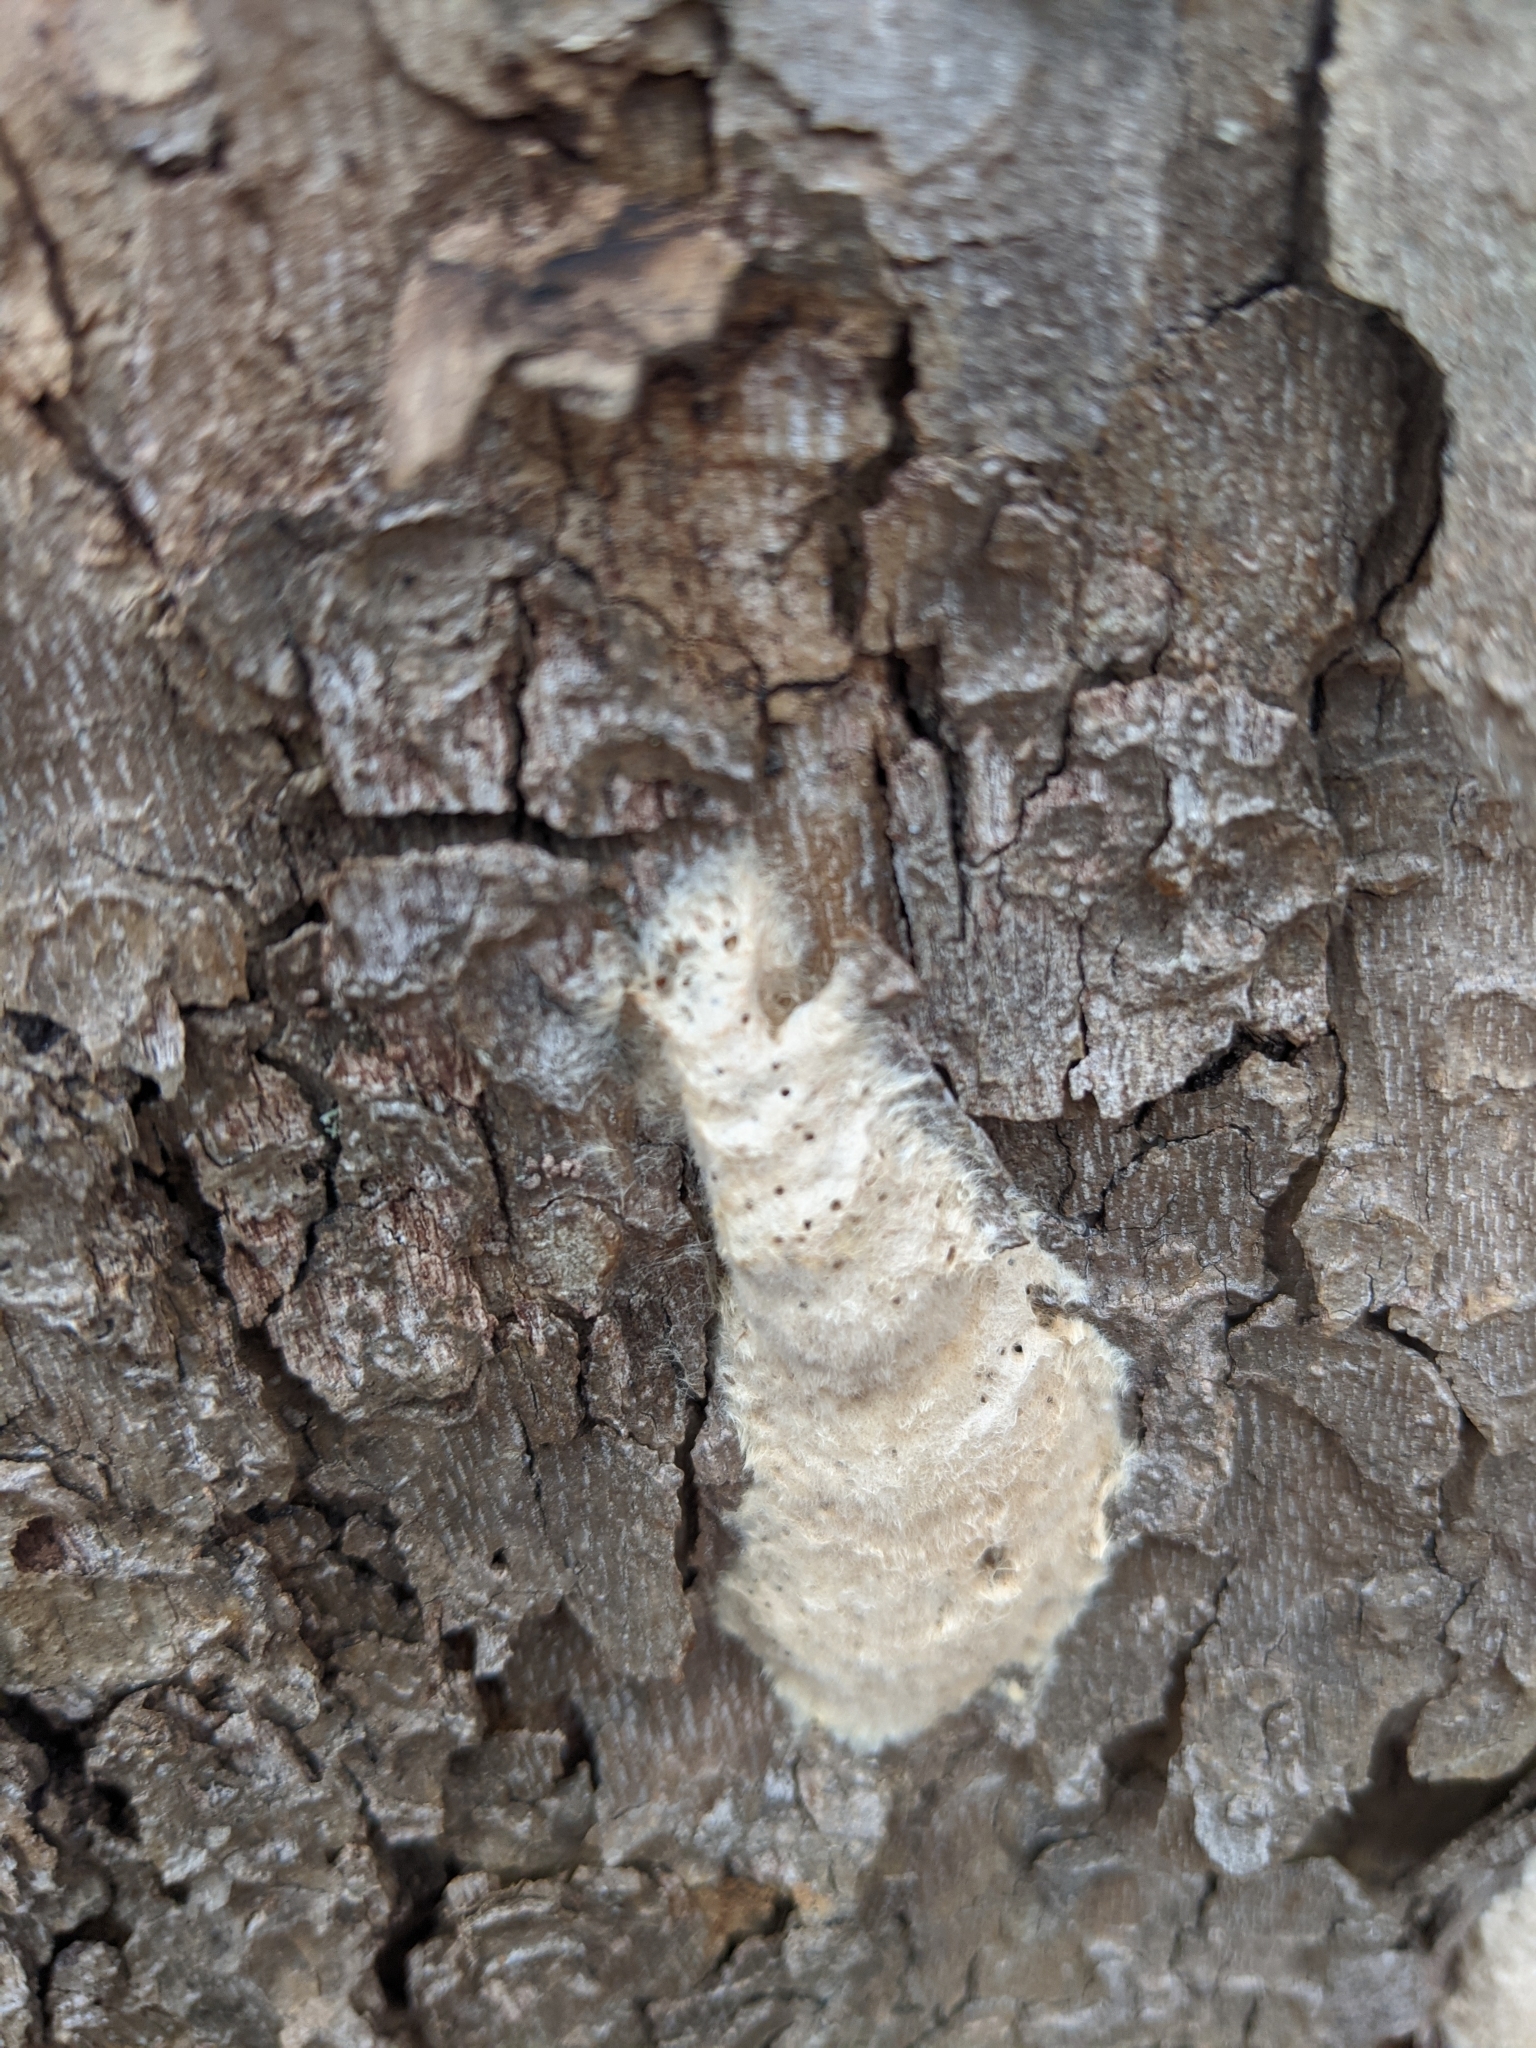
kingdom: Animalia
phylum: Arthropoda
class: Insecta
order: Hymenoptera
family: Encyrtidae
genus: Ooencyrtus
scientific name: Ooencyrtus kuvanae
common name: Wasp
